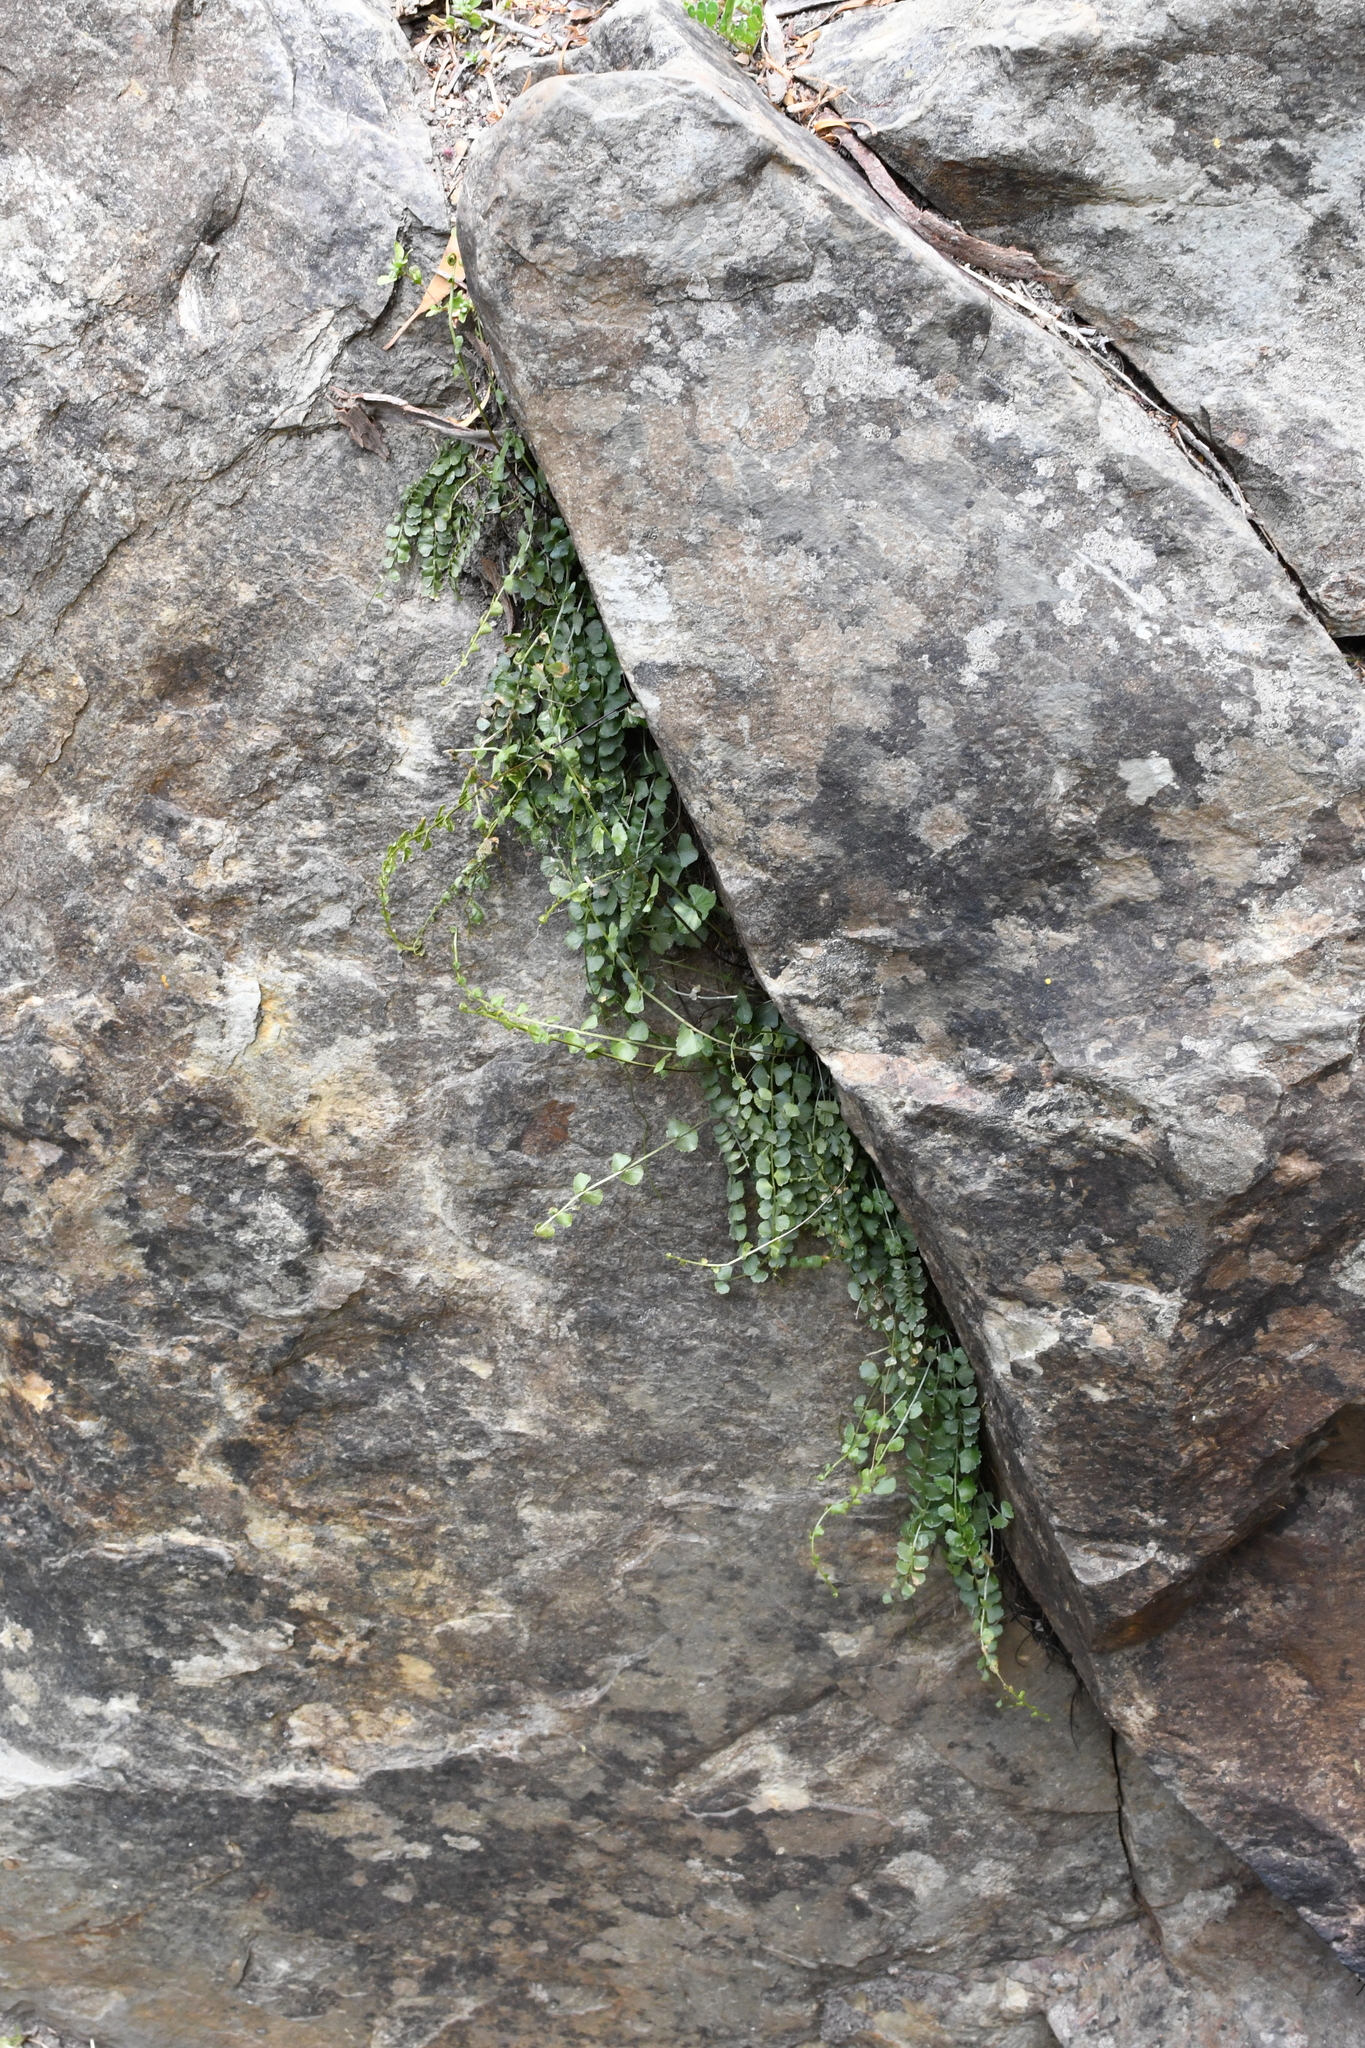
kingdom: Plantae
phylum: Tracheophyta
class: Polypodiopsida
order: Polypodiales
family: Aspleniaceae
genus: Asplenium
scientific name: Asplenium flabellifolium
